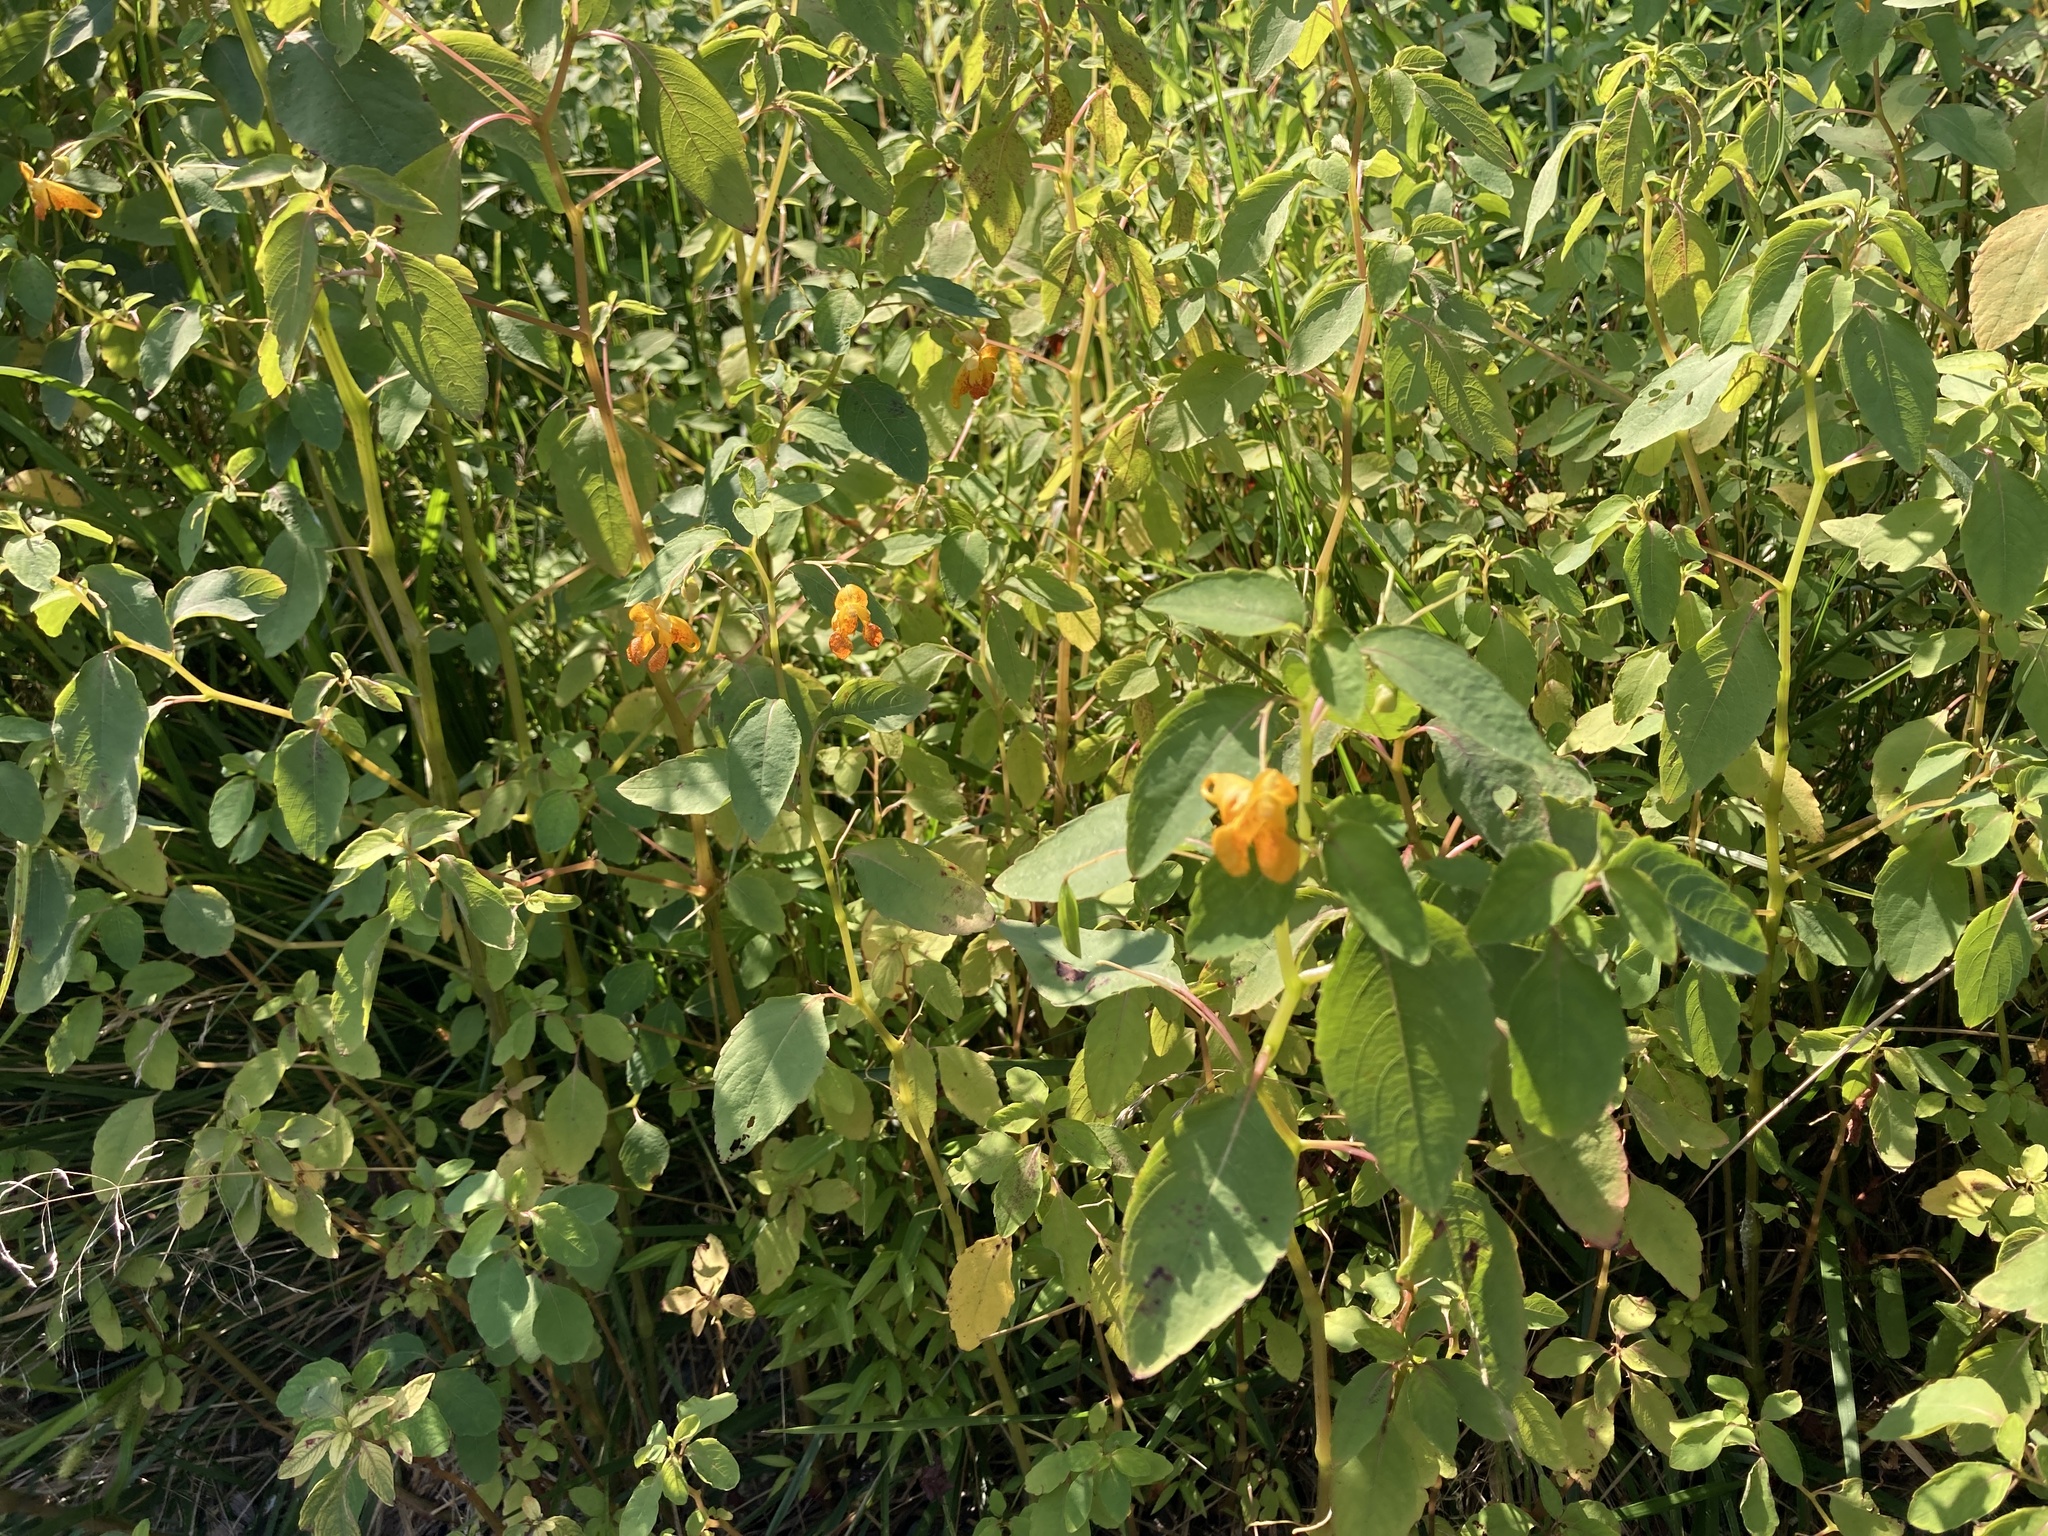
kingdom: Plantae
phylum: Tracheophyta
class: Magnoliopsida
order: Ericales
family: Balsaminaceae
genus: Impatiens
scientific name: Impatiens capensis
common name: Orange balsam
